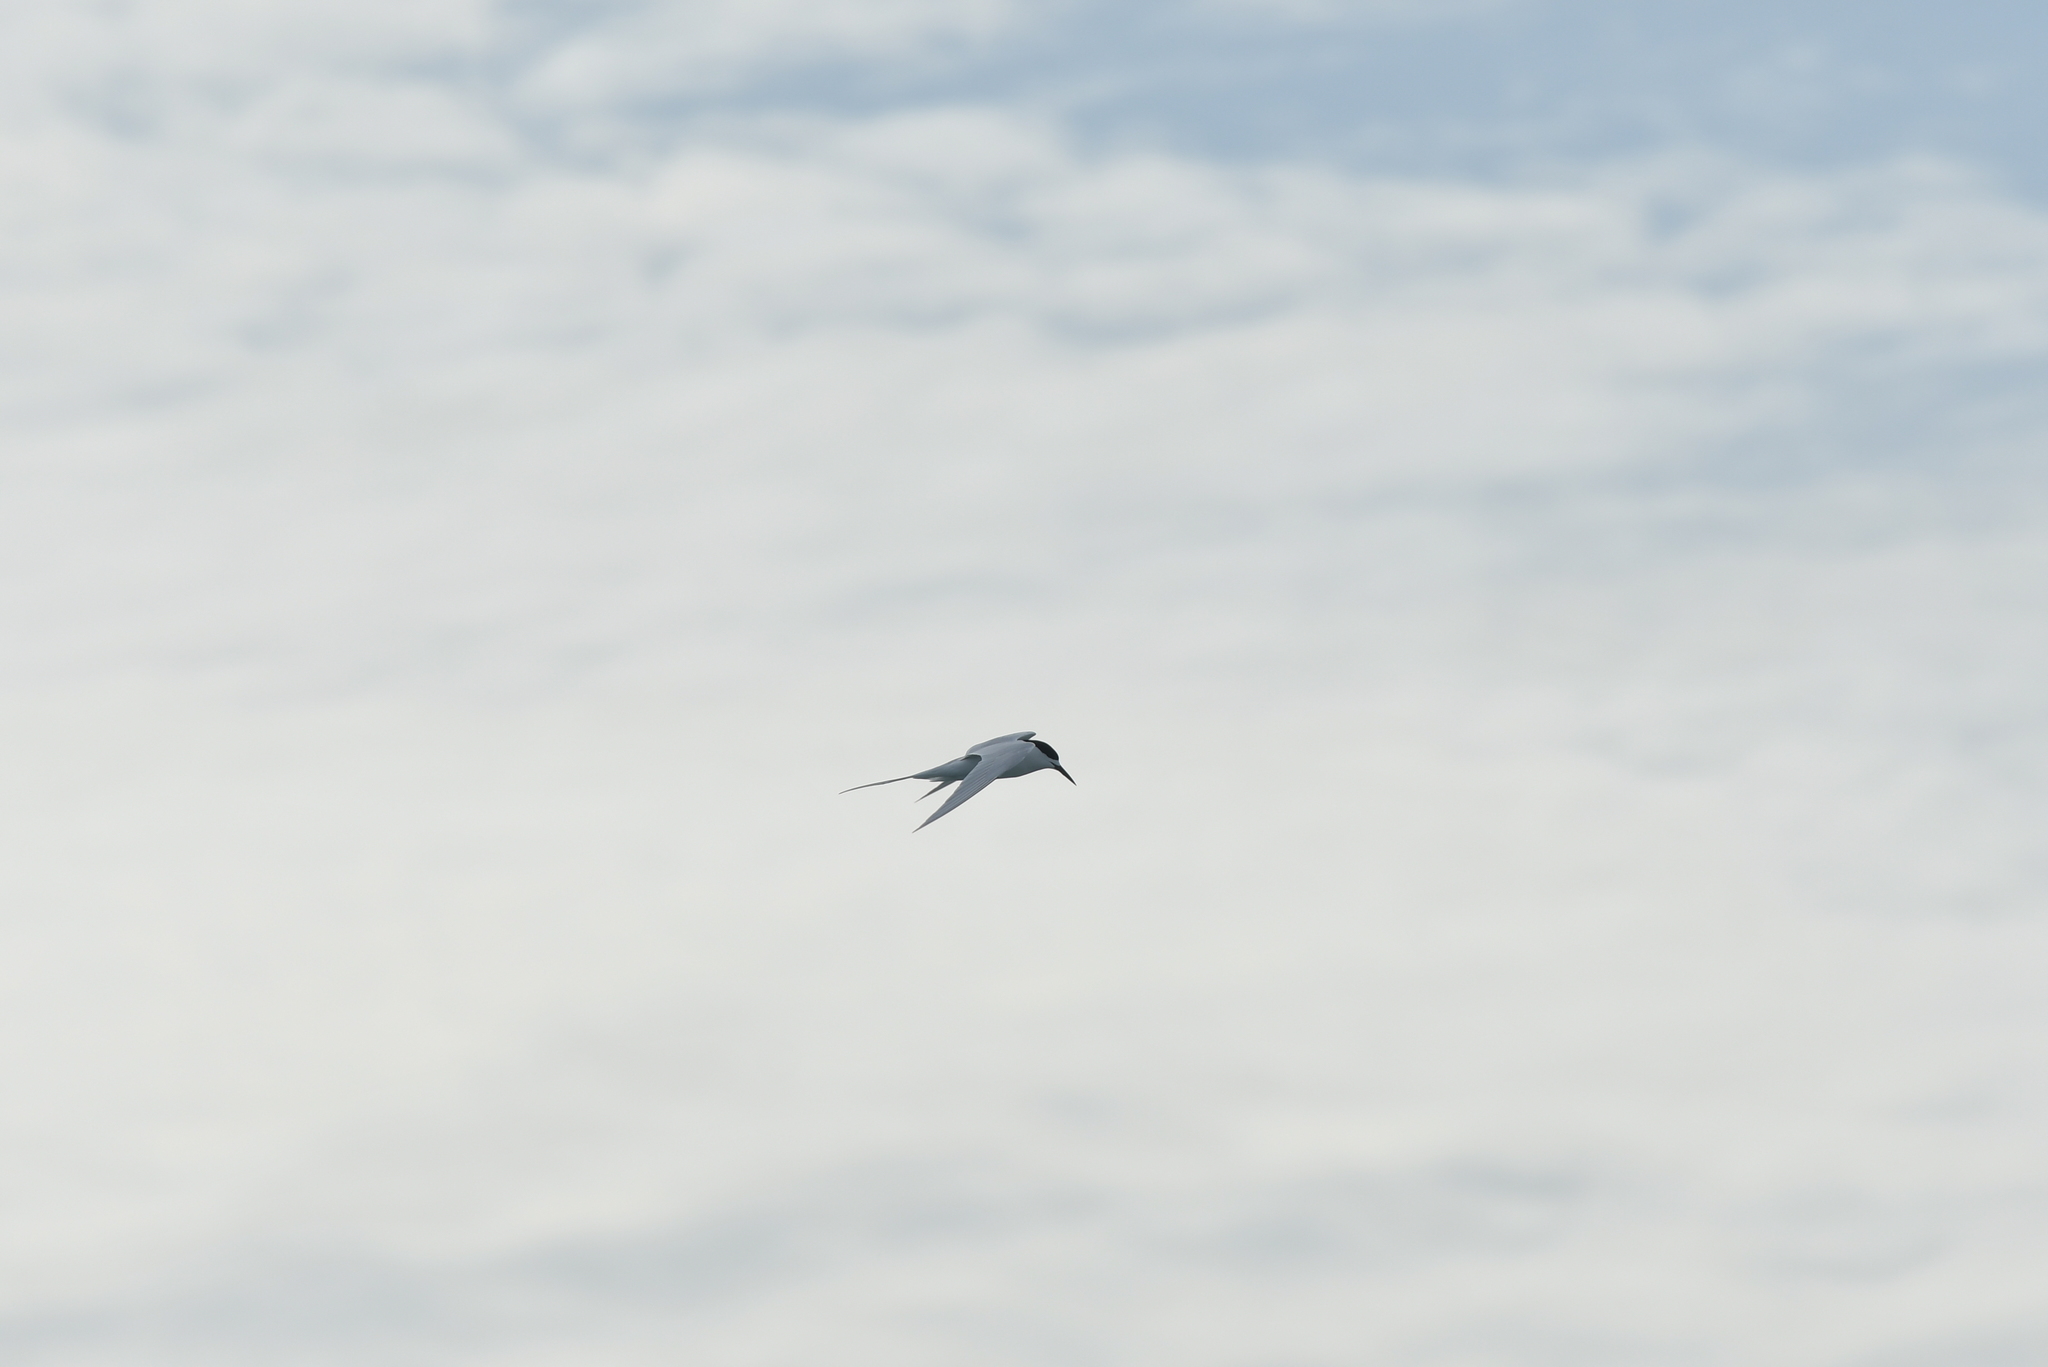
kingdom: Animalia
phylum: Chordata
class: Aves
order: Charadriiformes
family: Laridae
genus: Sterna
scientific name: Sterna striata
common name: White-fronted tern
